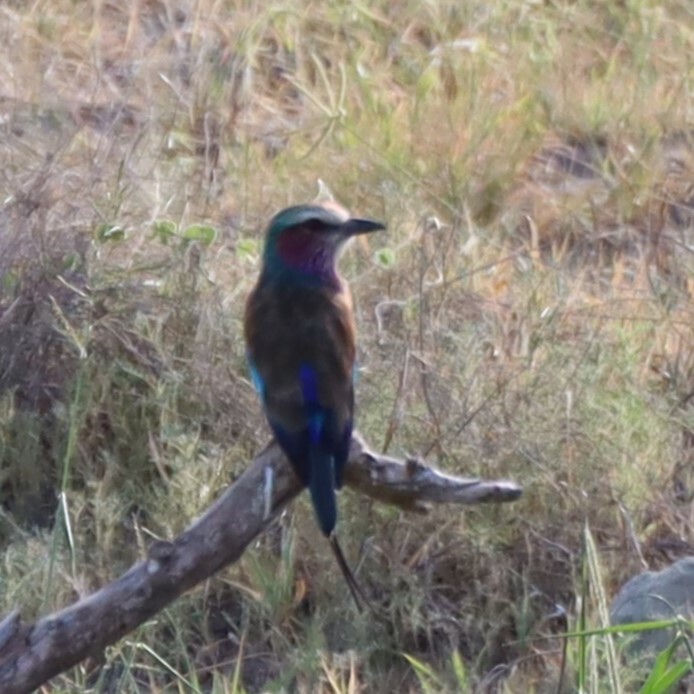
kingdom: Animalia
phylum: Chordata
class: Aves
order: Coraciiformes
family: Coraciidae
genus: Coracias
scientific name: Coracias caudatus
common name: Lilac-breasted roller
